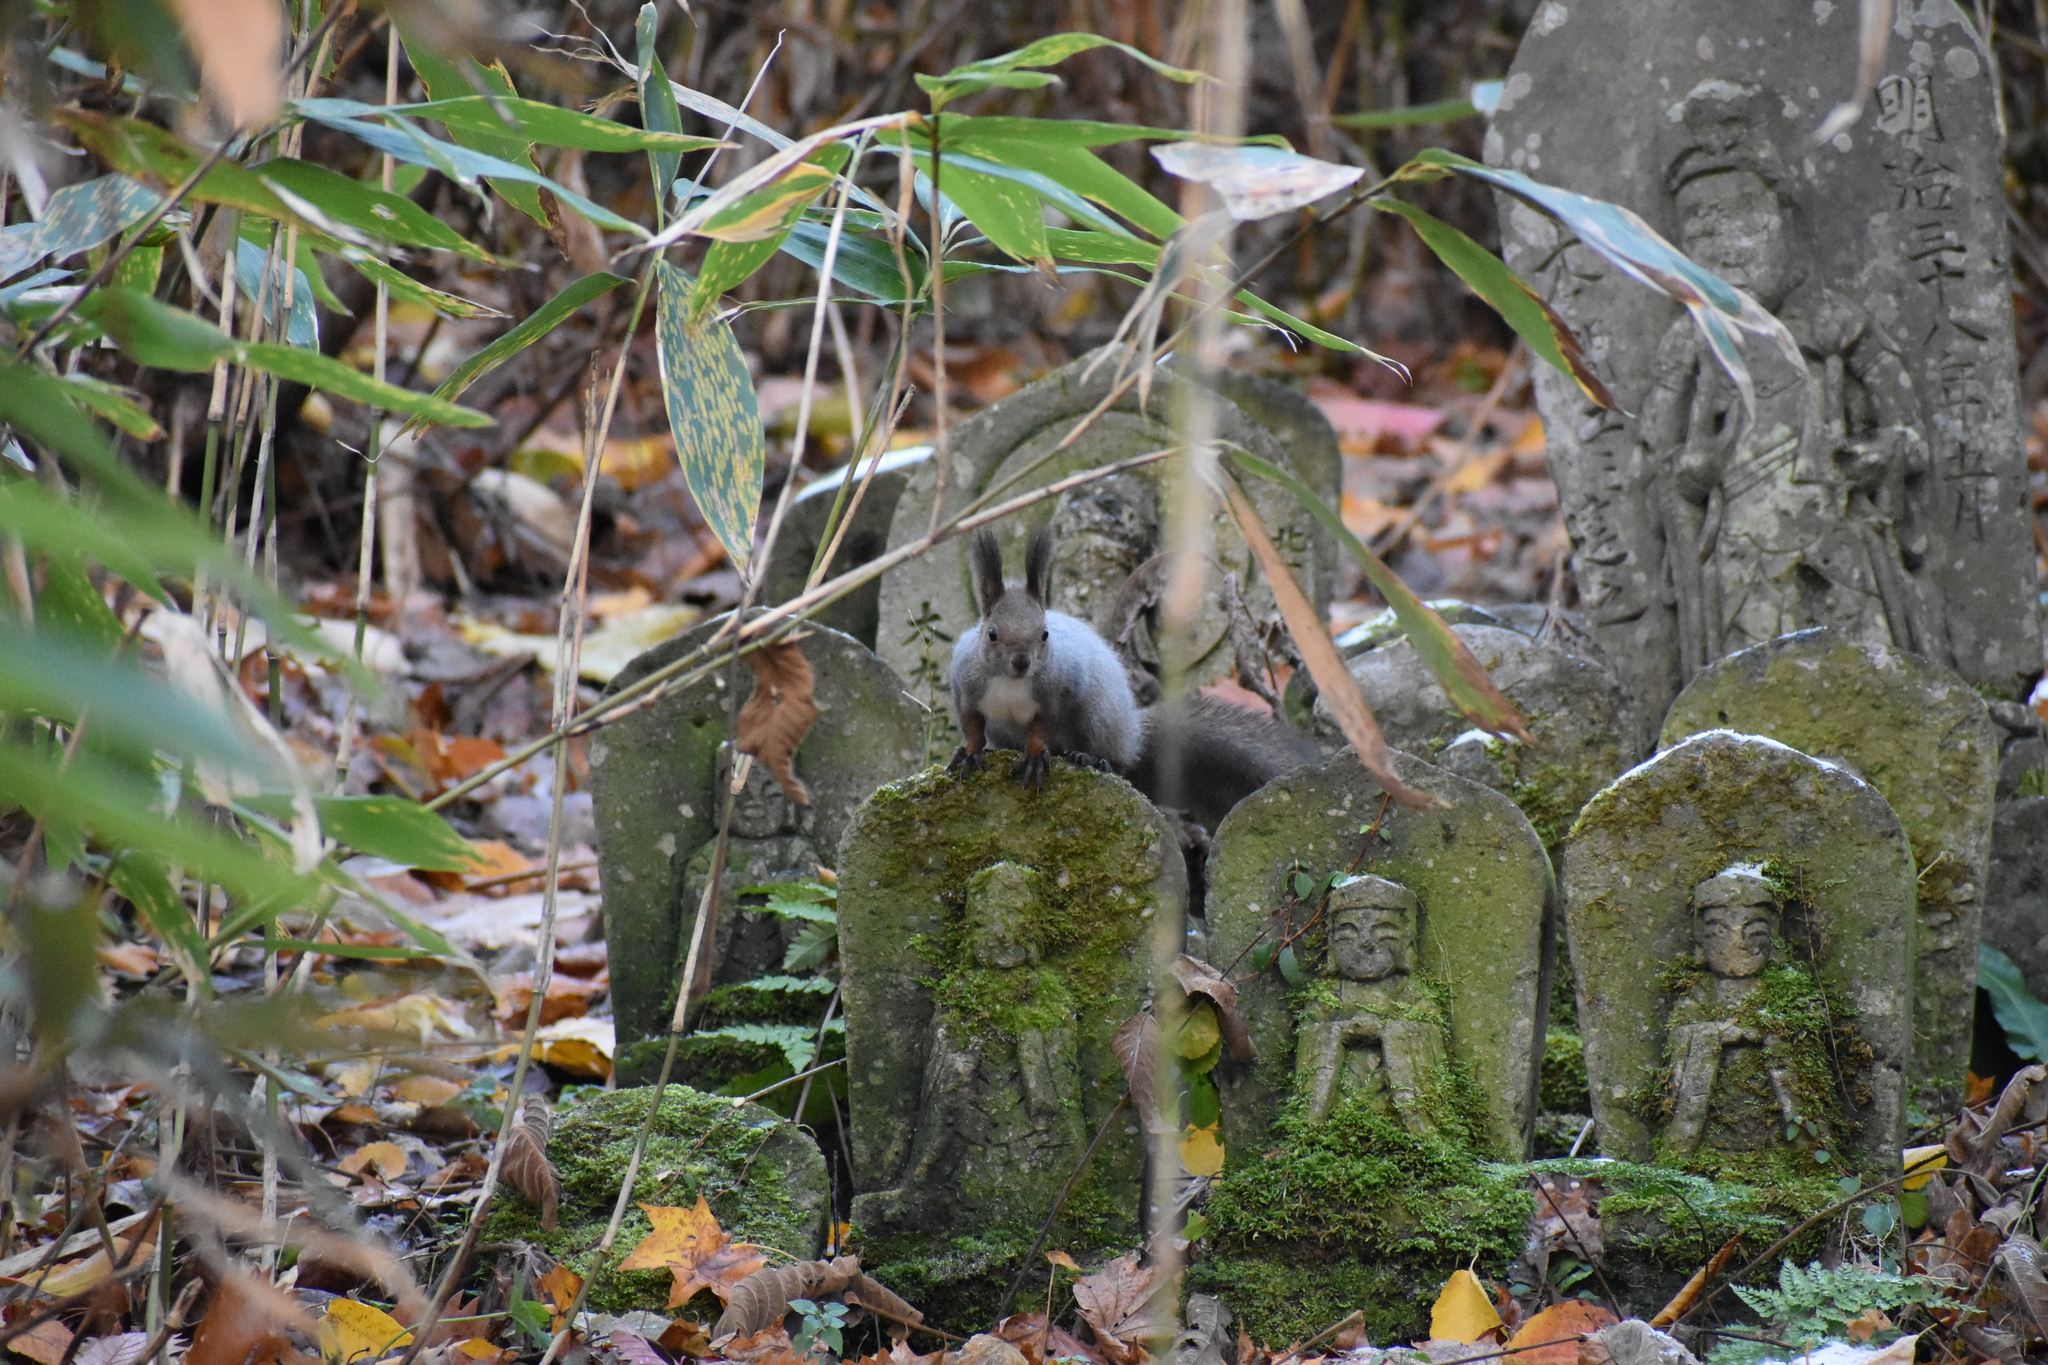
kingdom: Animalia
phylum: Chordata
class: Mammalia
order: Rodentia
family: Sciuridae
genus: Sciurus
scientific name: Sciurus vulgaris
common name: Eurasian red squirrel
